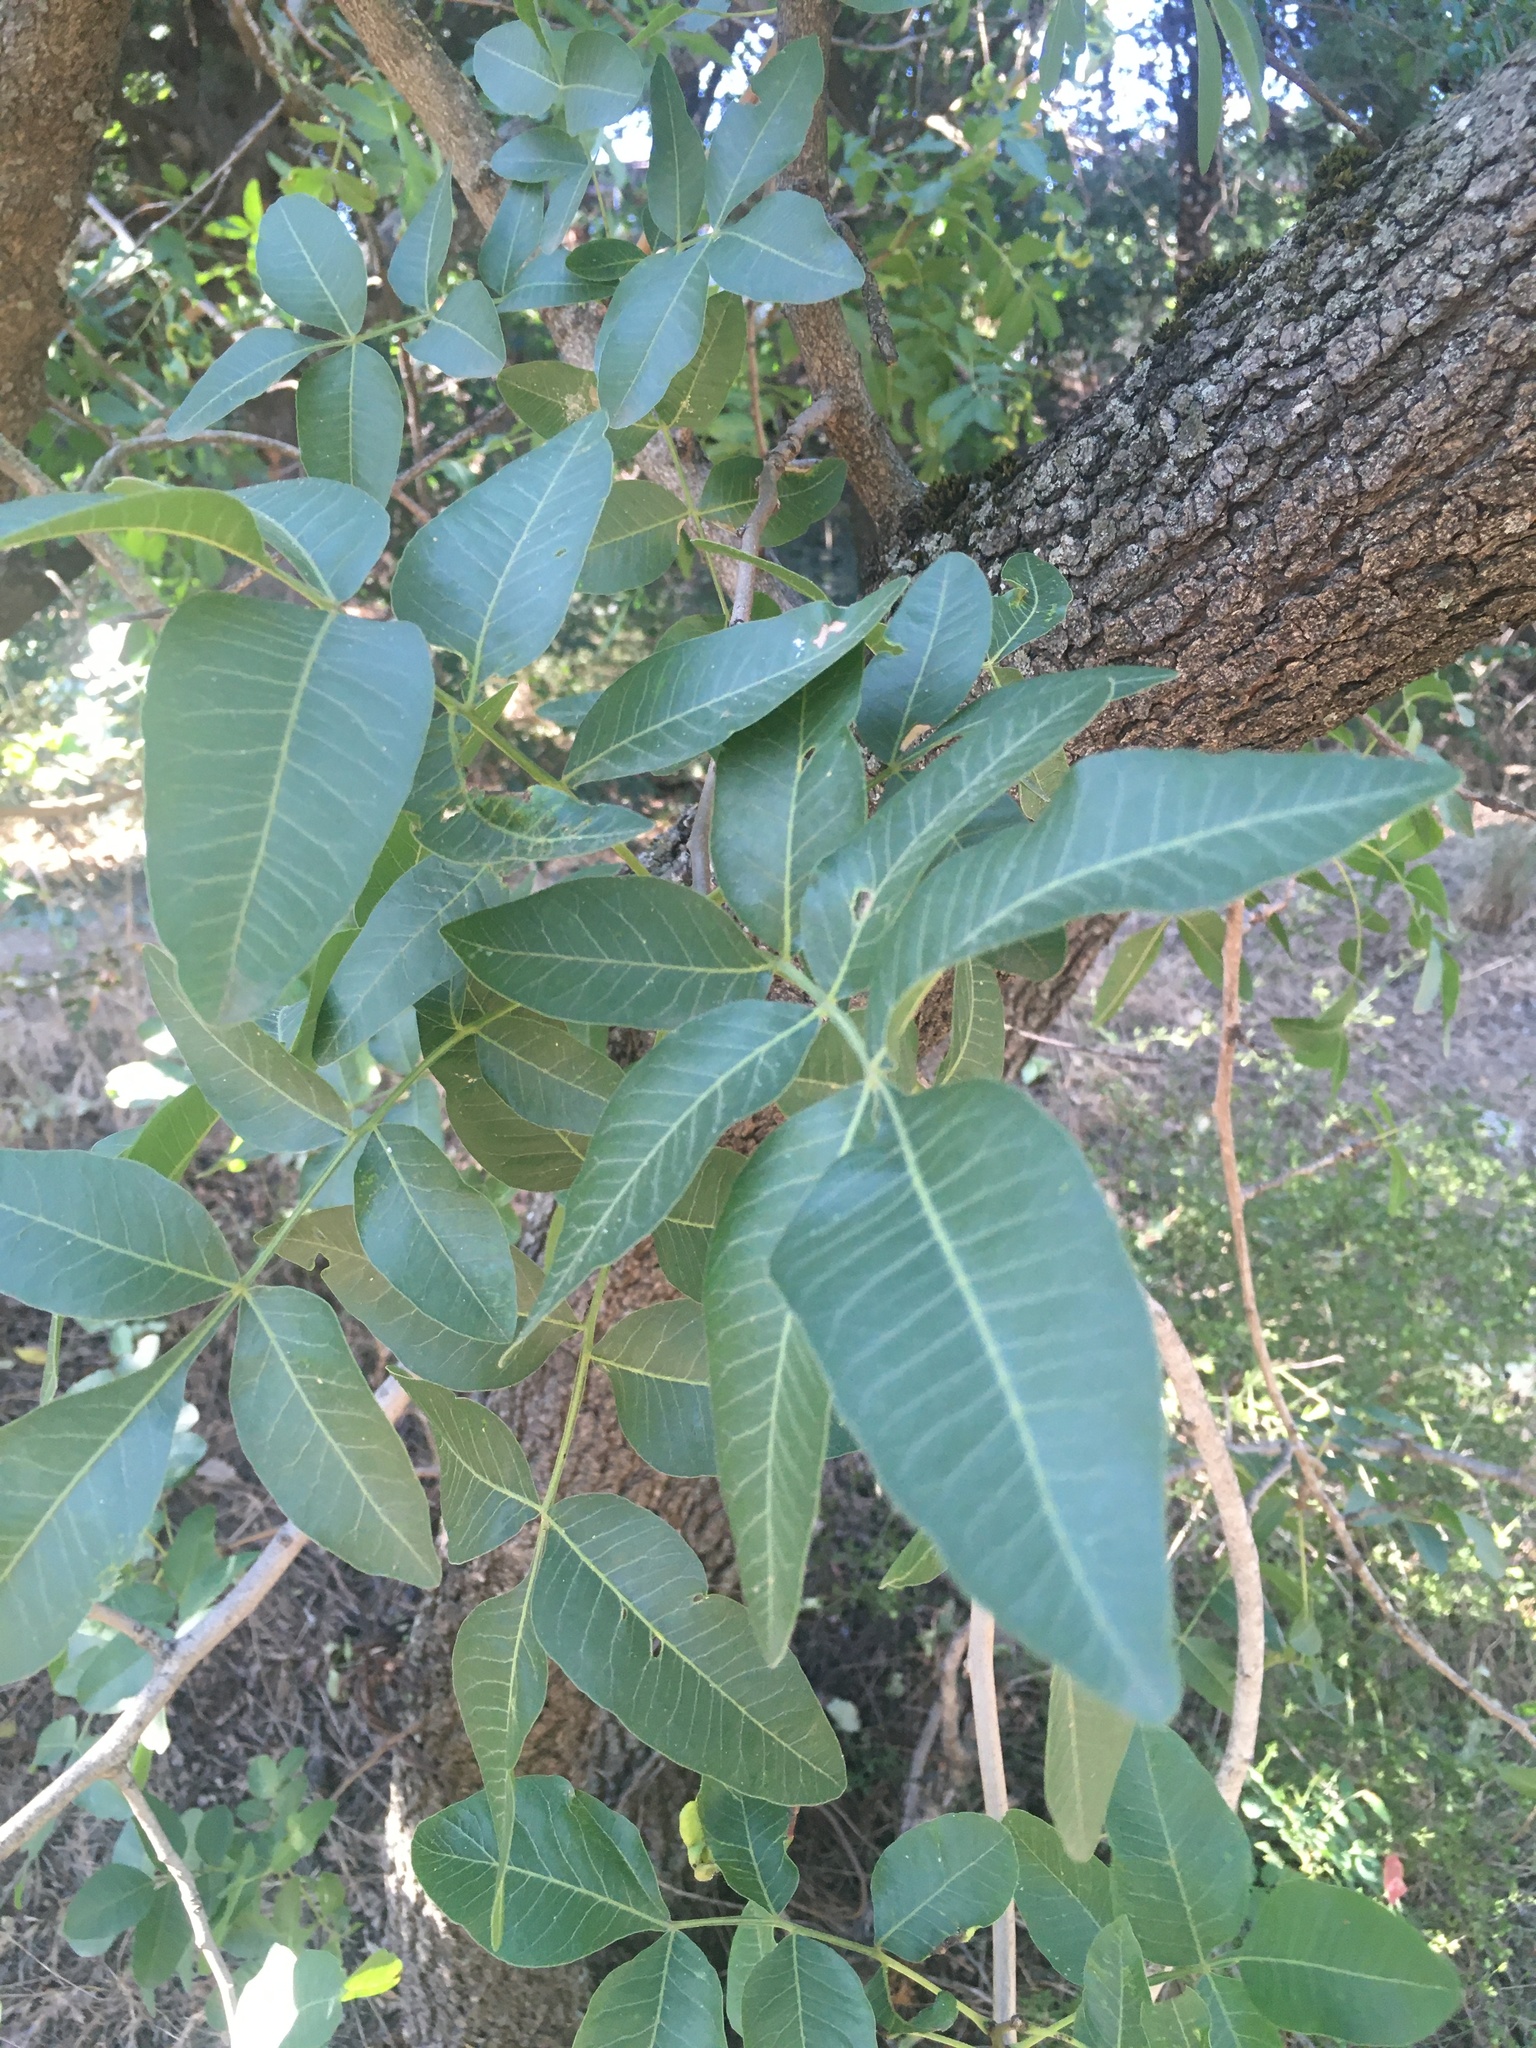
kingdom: Plantae
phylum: Tracheophyta
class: Magnoliopsida
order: Sapindales
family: Anacardiaceae
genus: Pistacia
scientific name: Pistacia atlantica
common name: Mt. atlas mastic tree
